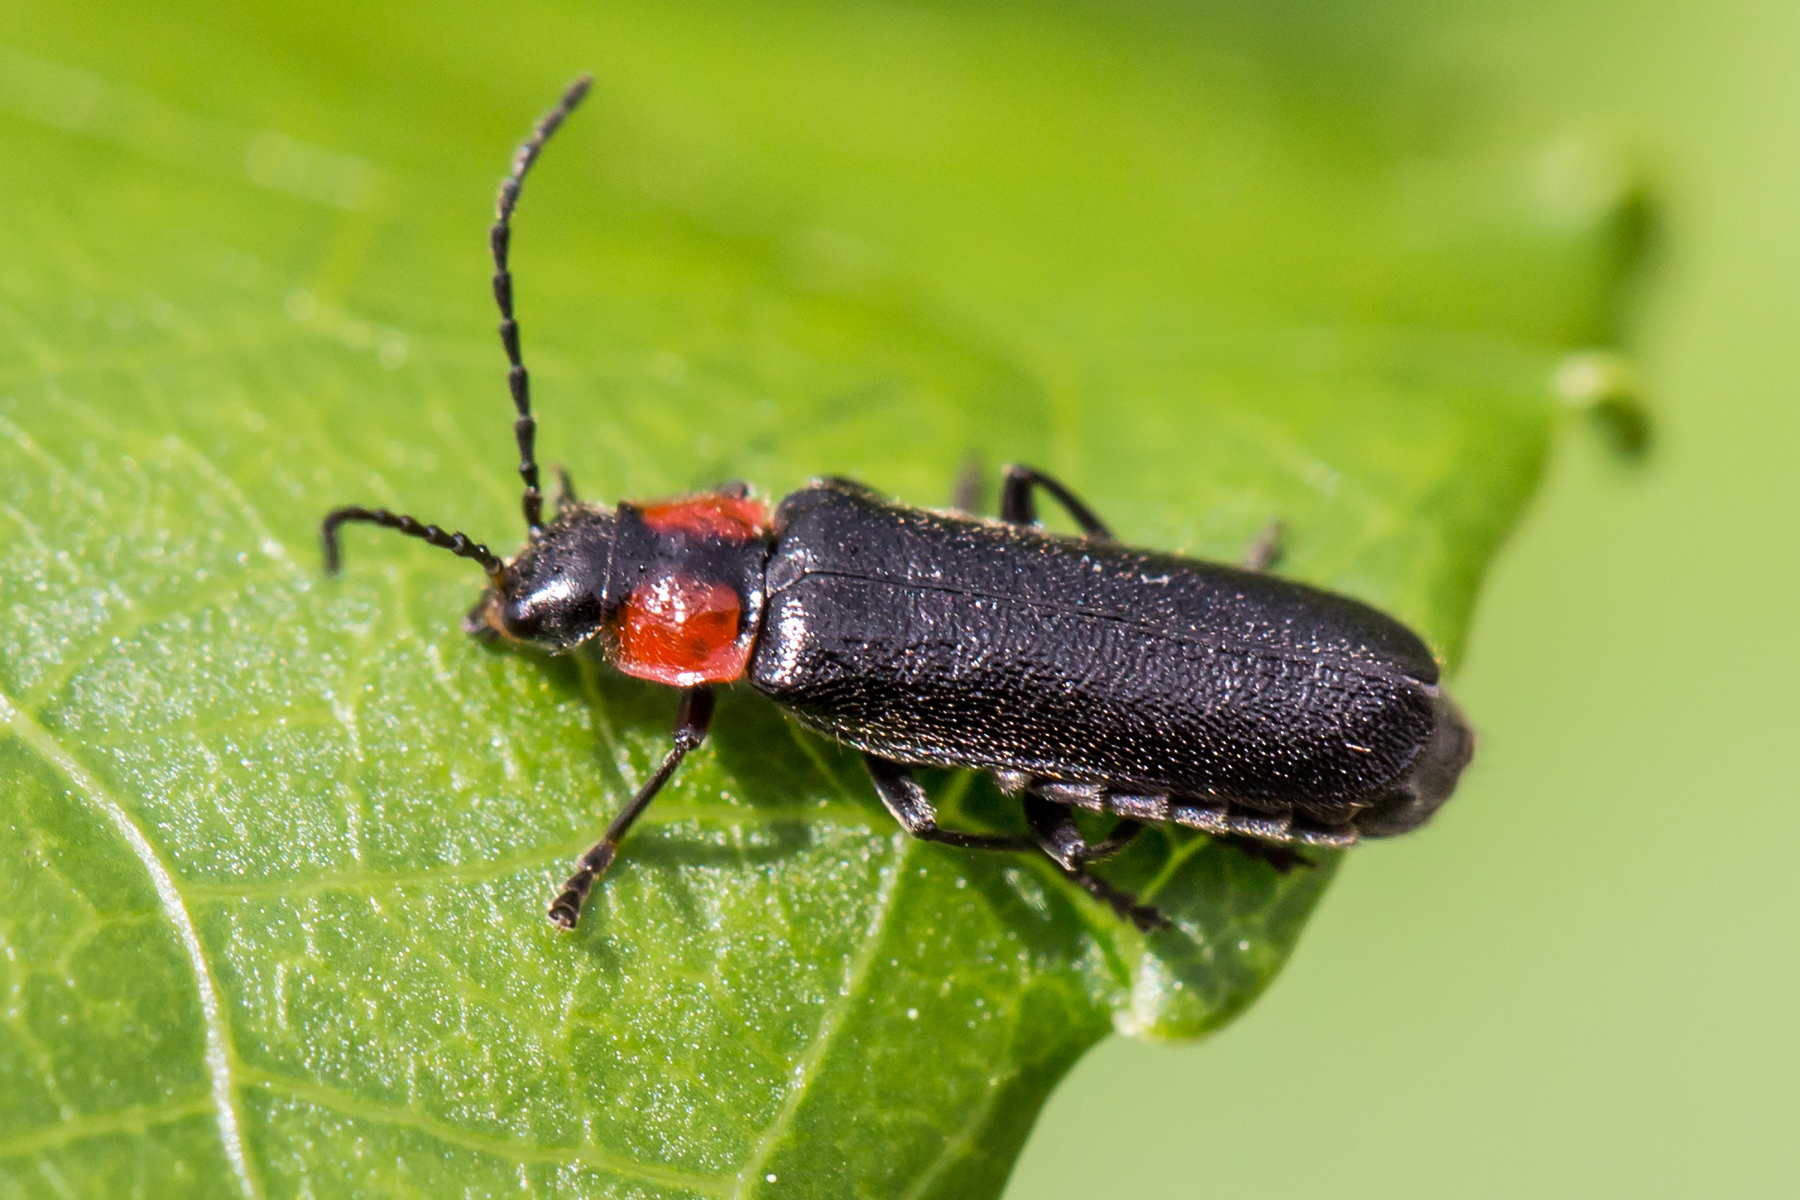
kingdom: Animalia
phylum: Arthropoda
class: Insecta
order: Coleoptera
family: Cantharidae
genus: Cantharis
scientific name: Cantharis tuberculata
